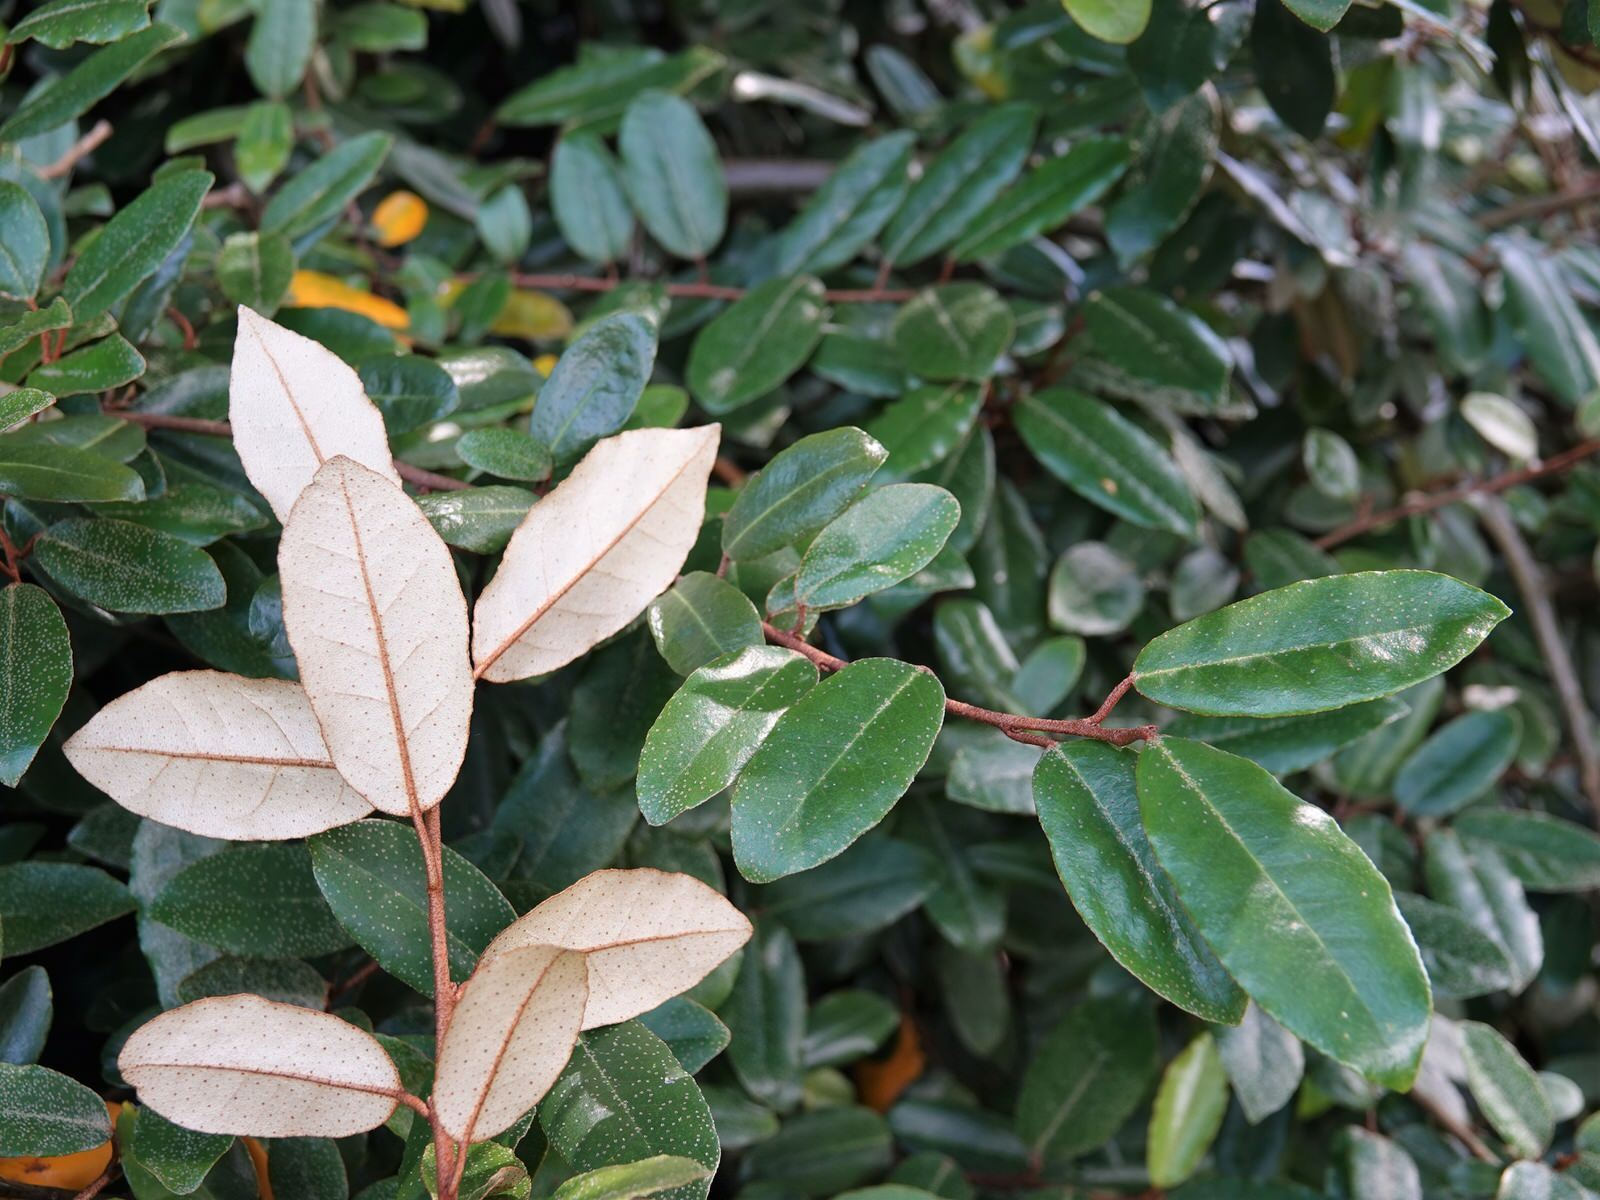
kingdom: Plantae
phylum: Tracheophyta
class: Magnoliopsida
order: Rosales
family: Elaeagnaceae
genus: Elaeagnus
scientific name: Elaeagnus reflexa
